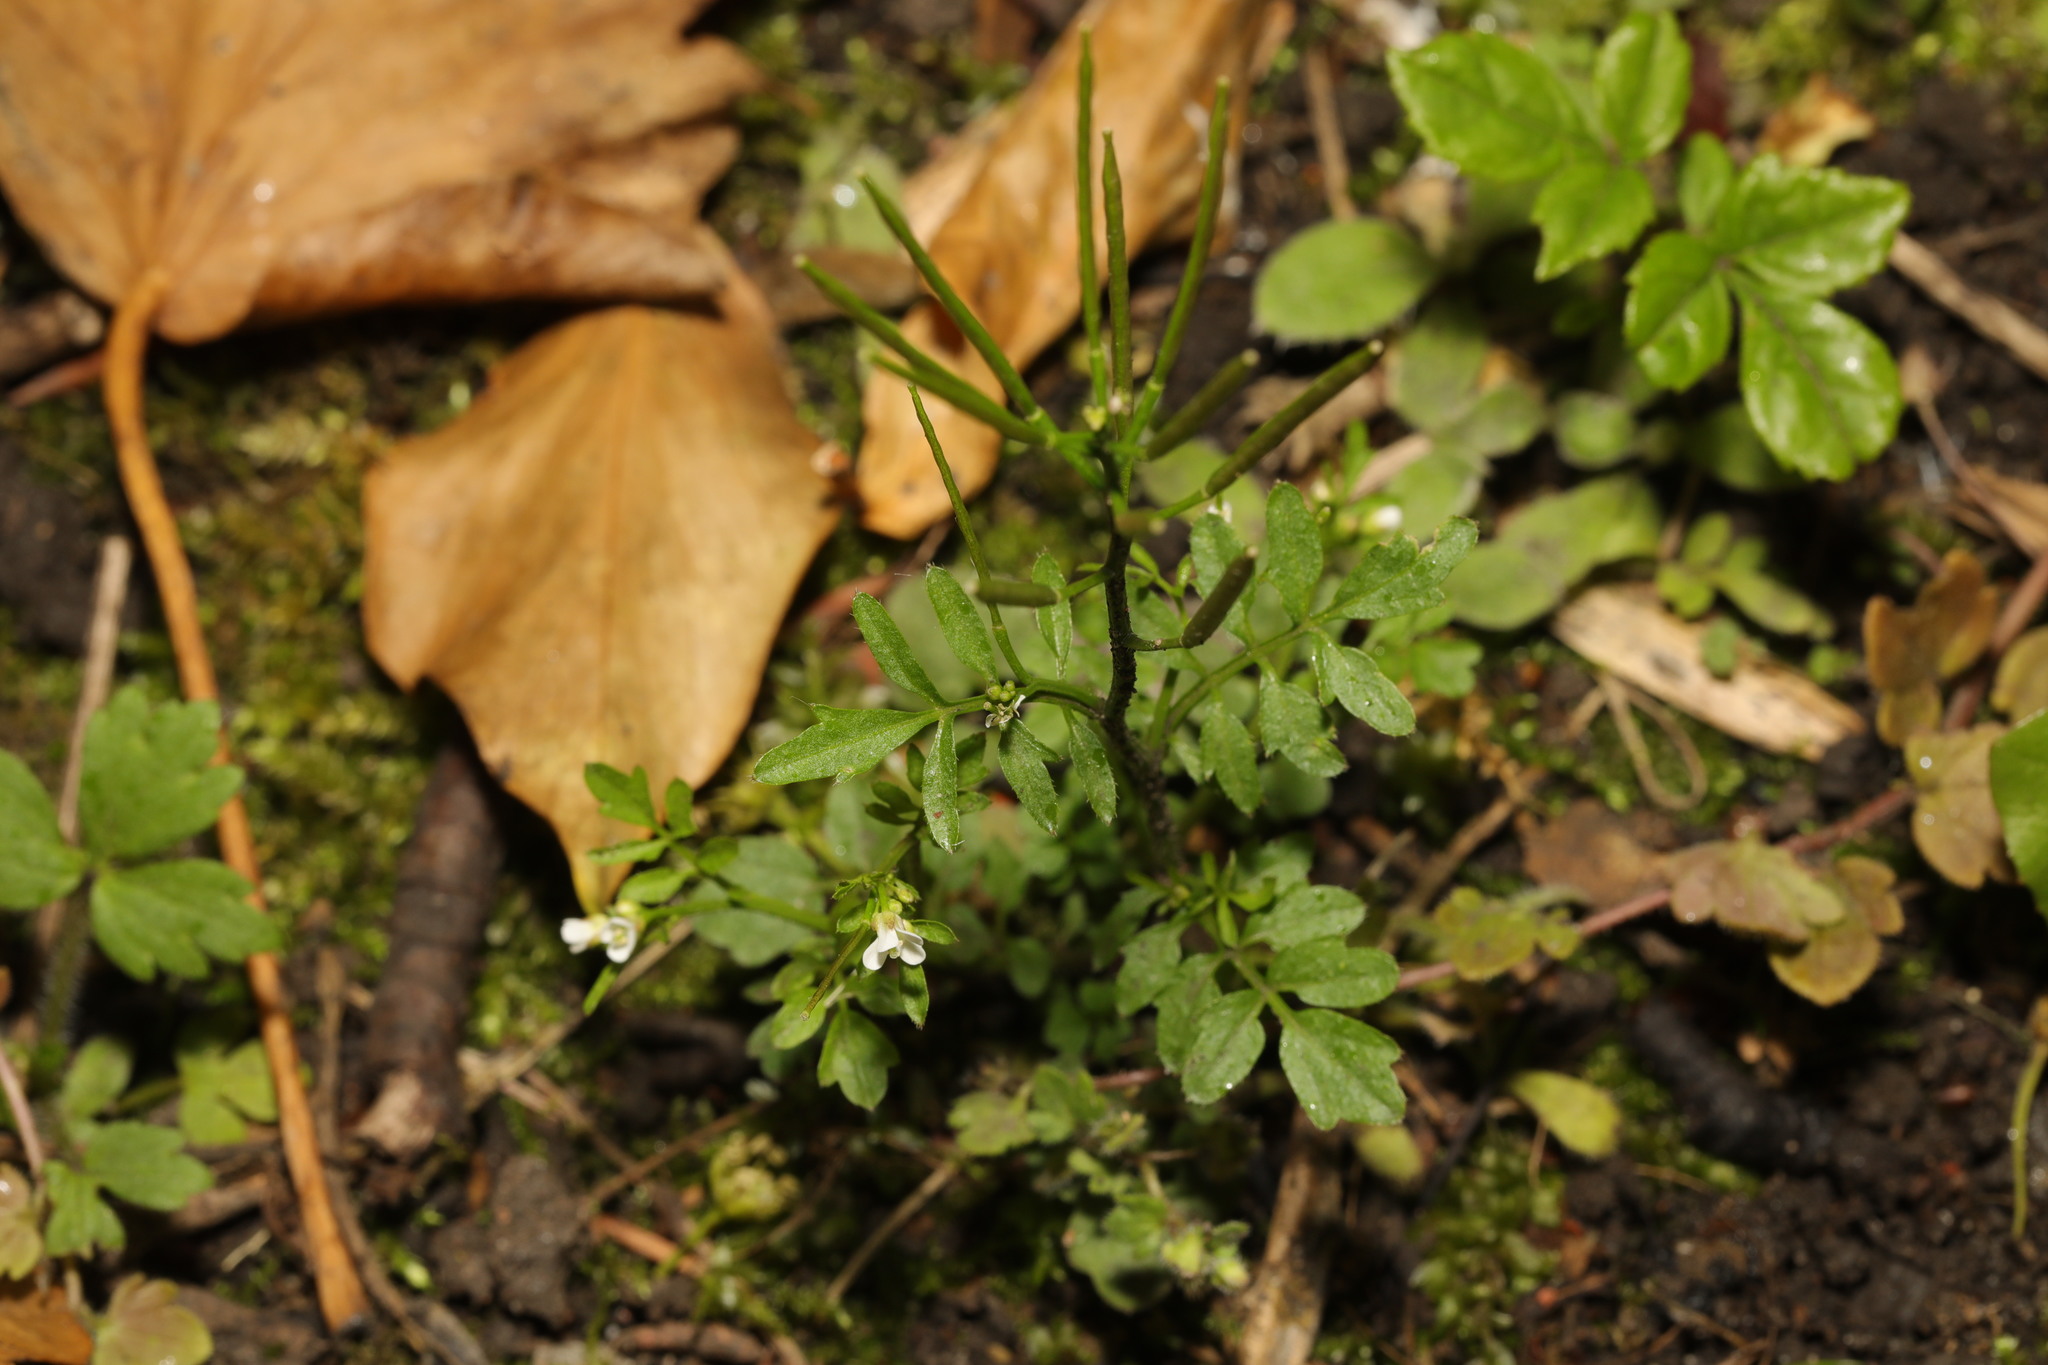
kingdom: Plantae
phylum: Tracheophyta
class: Magnoliopsida
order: Brassicales
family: Brassicaceae
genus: Cardamine
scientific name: Cardamine flexuosa
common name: Woodland bittercress
